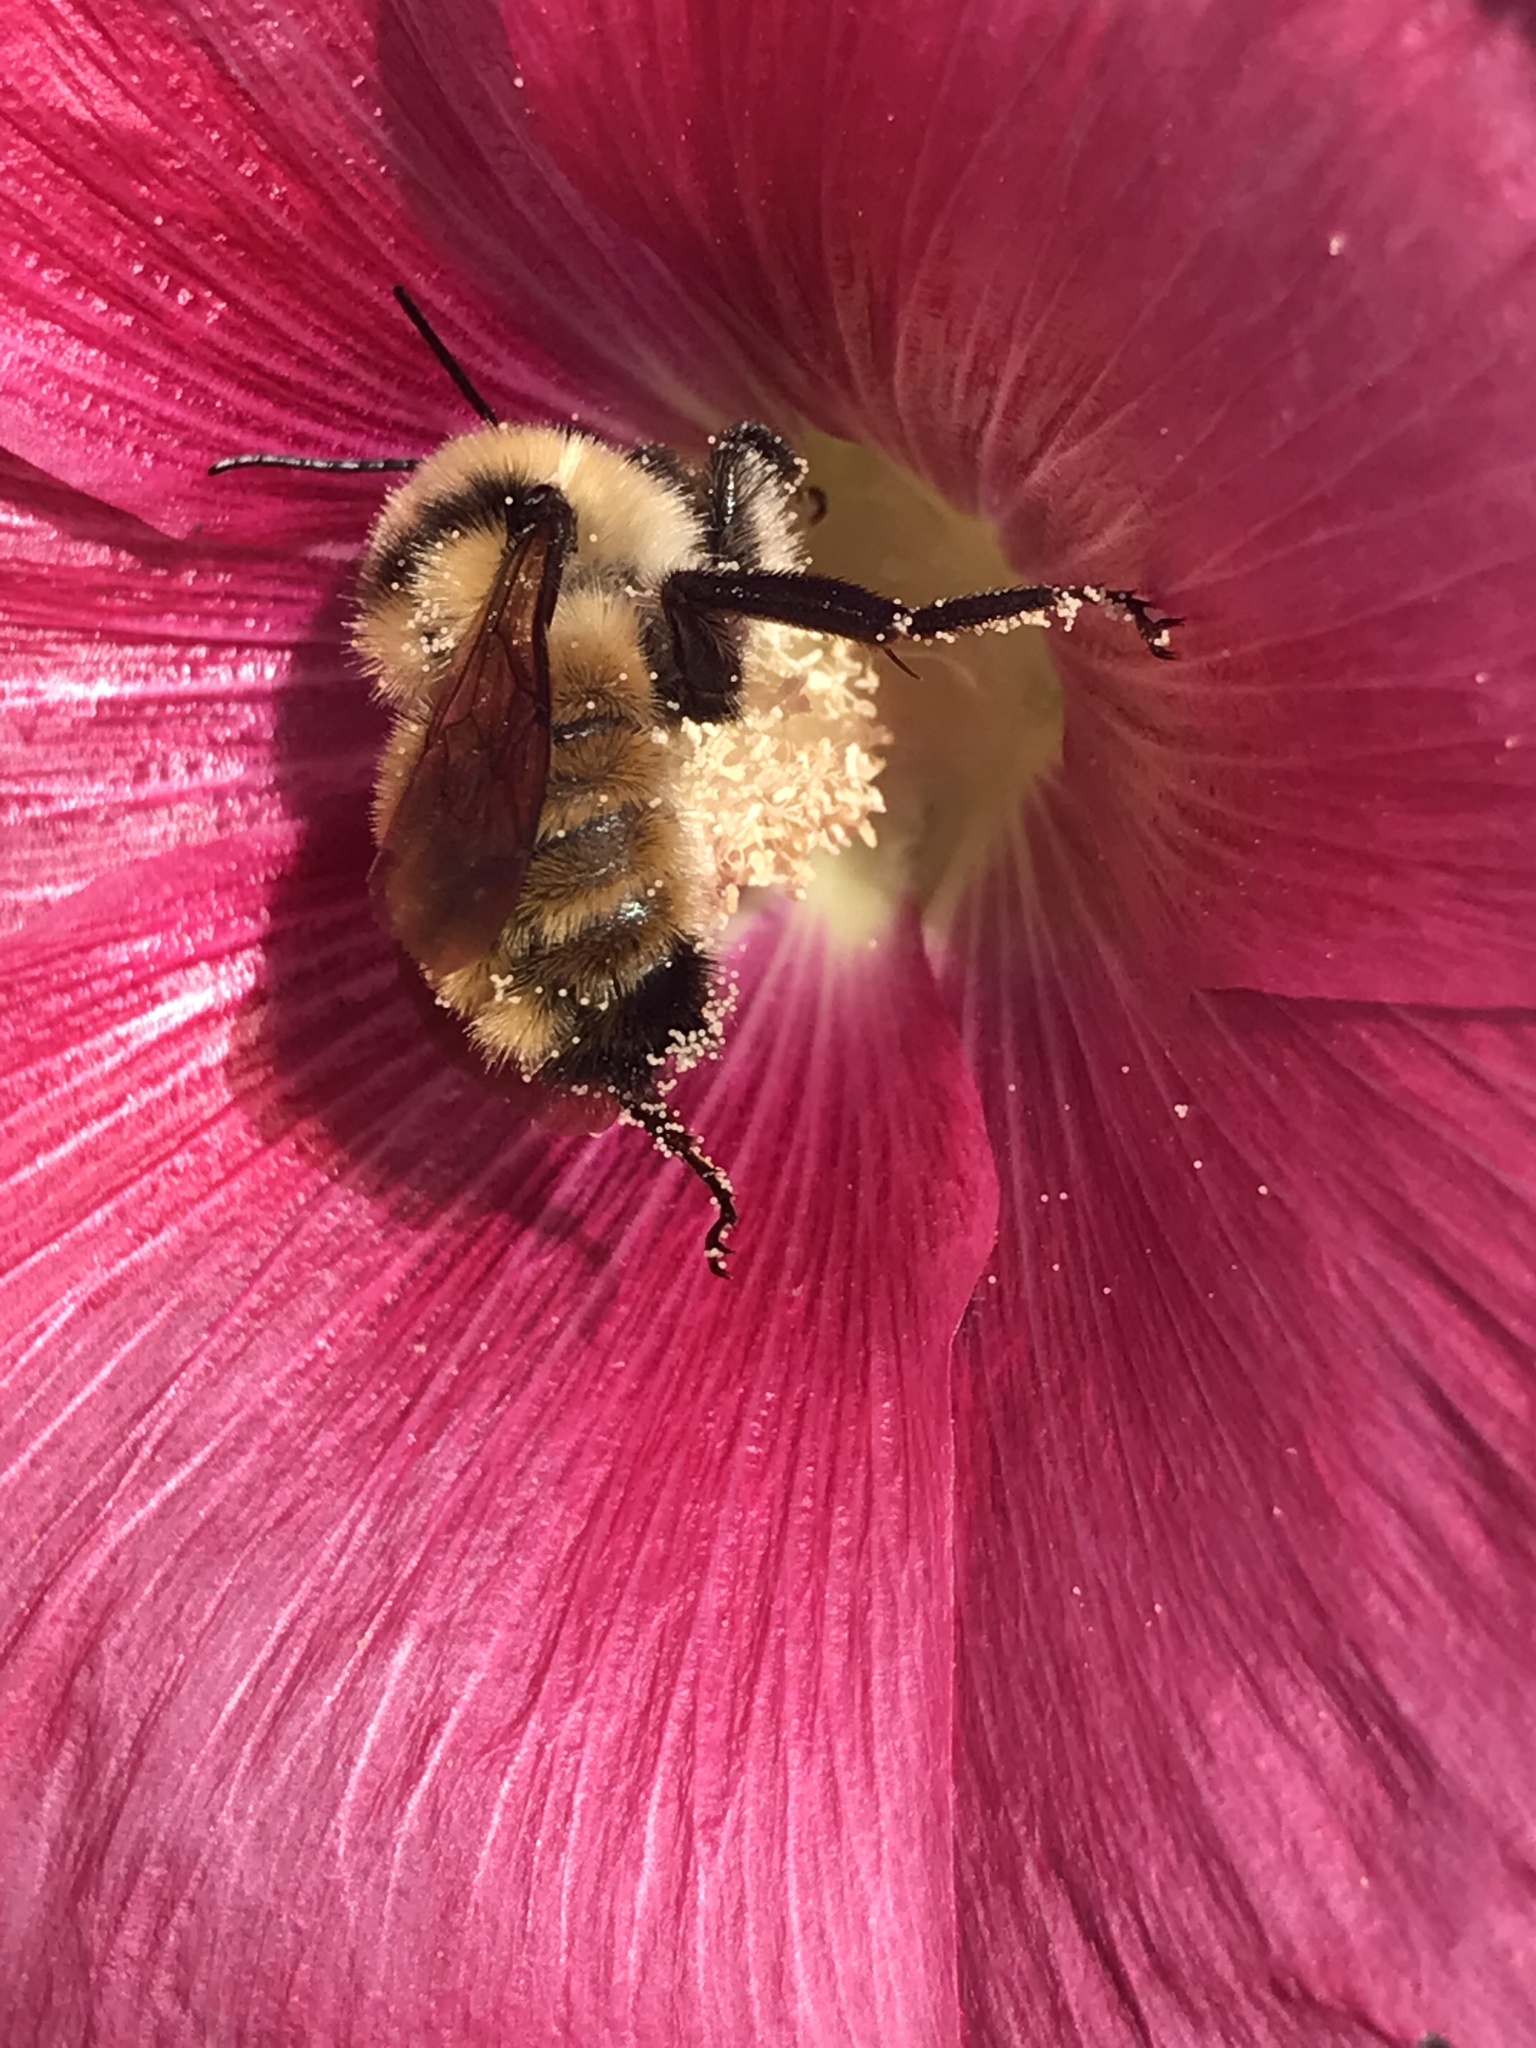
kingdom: Animalia
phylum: Arthropoda
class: Insecta
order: Hymenoptera
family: Apidae
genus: Bombus
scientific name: Bombus fervidus
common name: Yellow bumble bee
